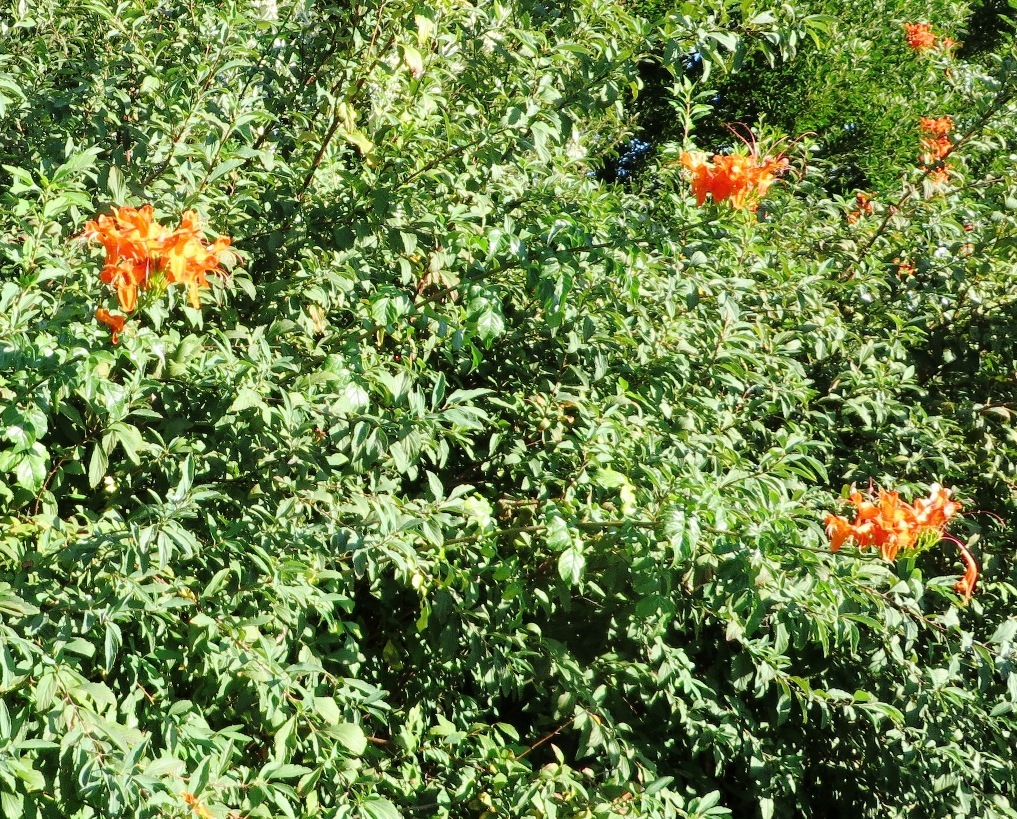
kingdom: Plantae
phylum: Tracheophyta
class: Magnoliopsida
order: Lamiales
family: Bignoniaceae
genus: Tecomaria
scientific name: Tecomaria capensis
